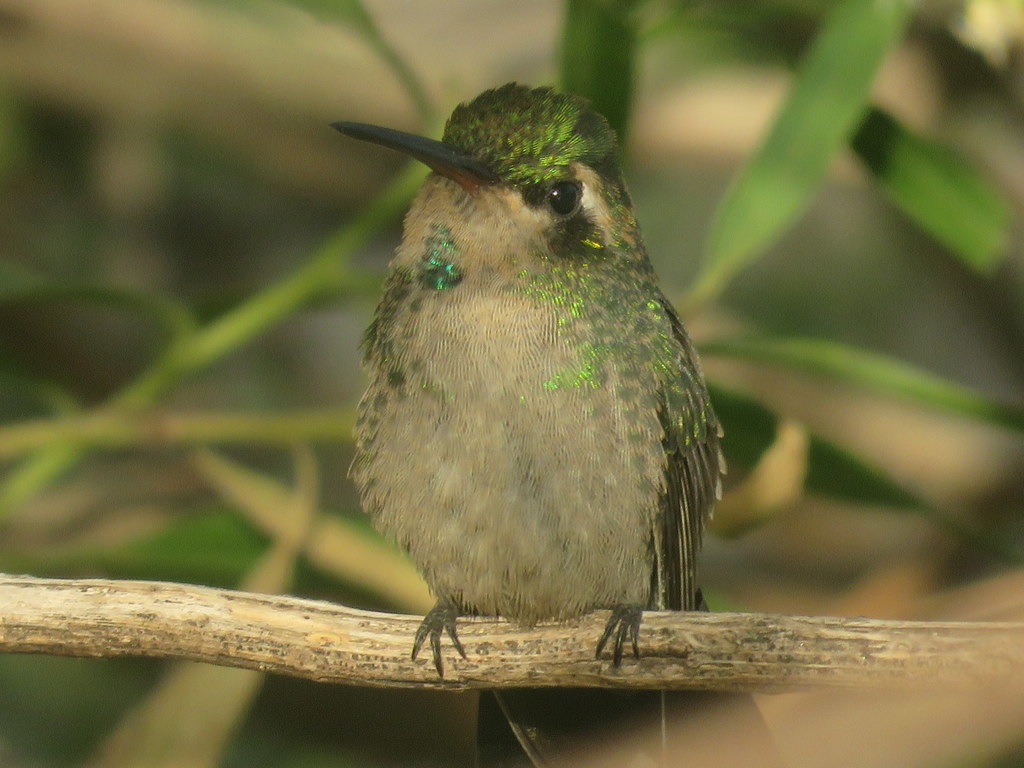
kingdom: Animalia
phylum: Chordata
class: Aves
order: Apodiformes
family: Trochilidae
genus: Chlorostilbon
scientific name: Chlorostilbon lucidus
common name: Glittering-bellied emerald
